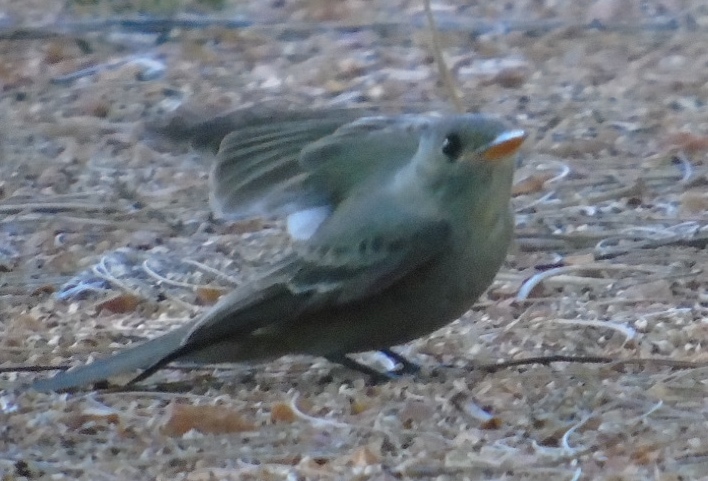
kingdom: Animalia
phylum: Chordata
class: Aves
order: Passeriformes
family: Tyrannidae
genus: Contopus
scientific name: Contopus pertinax
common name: Greater pewee
